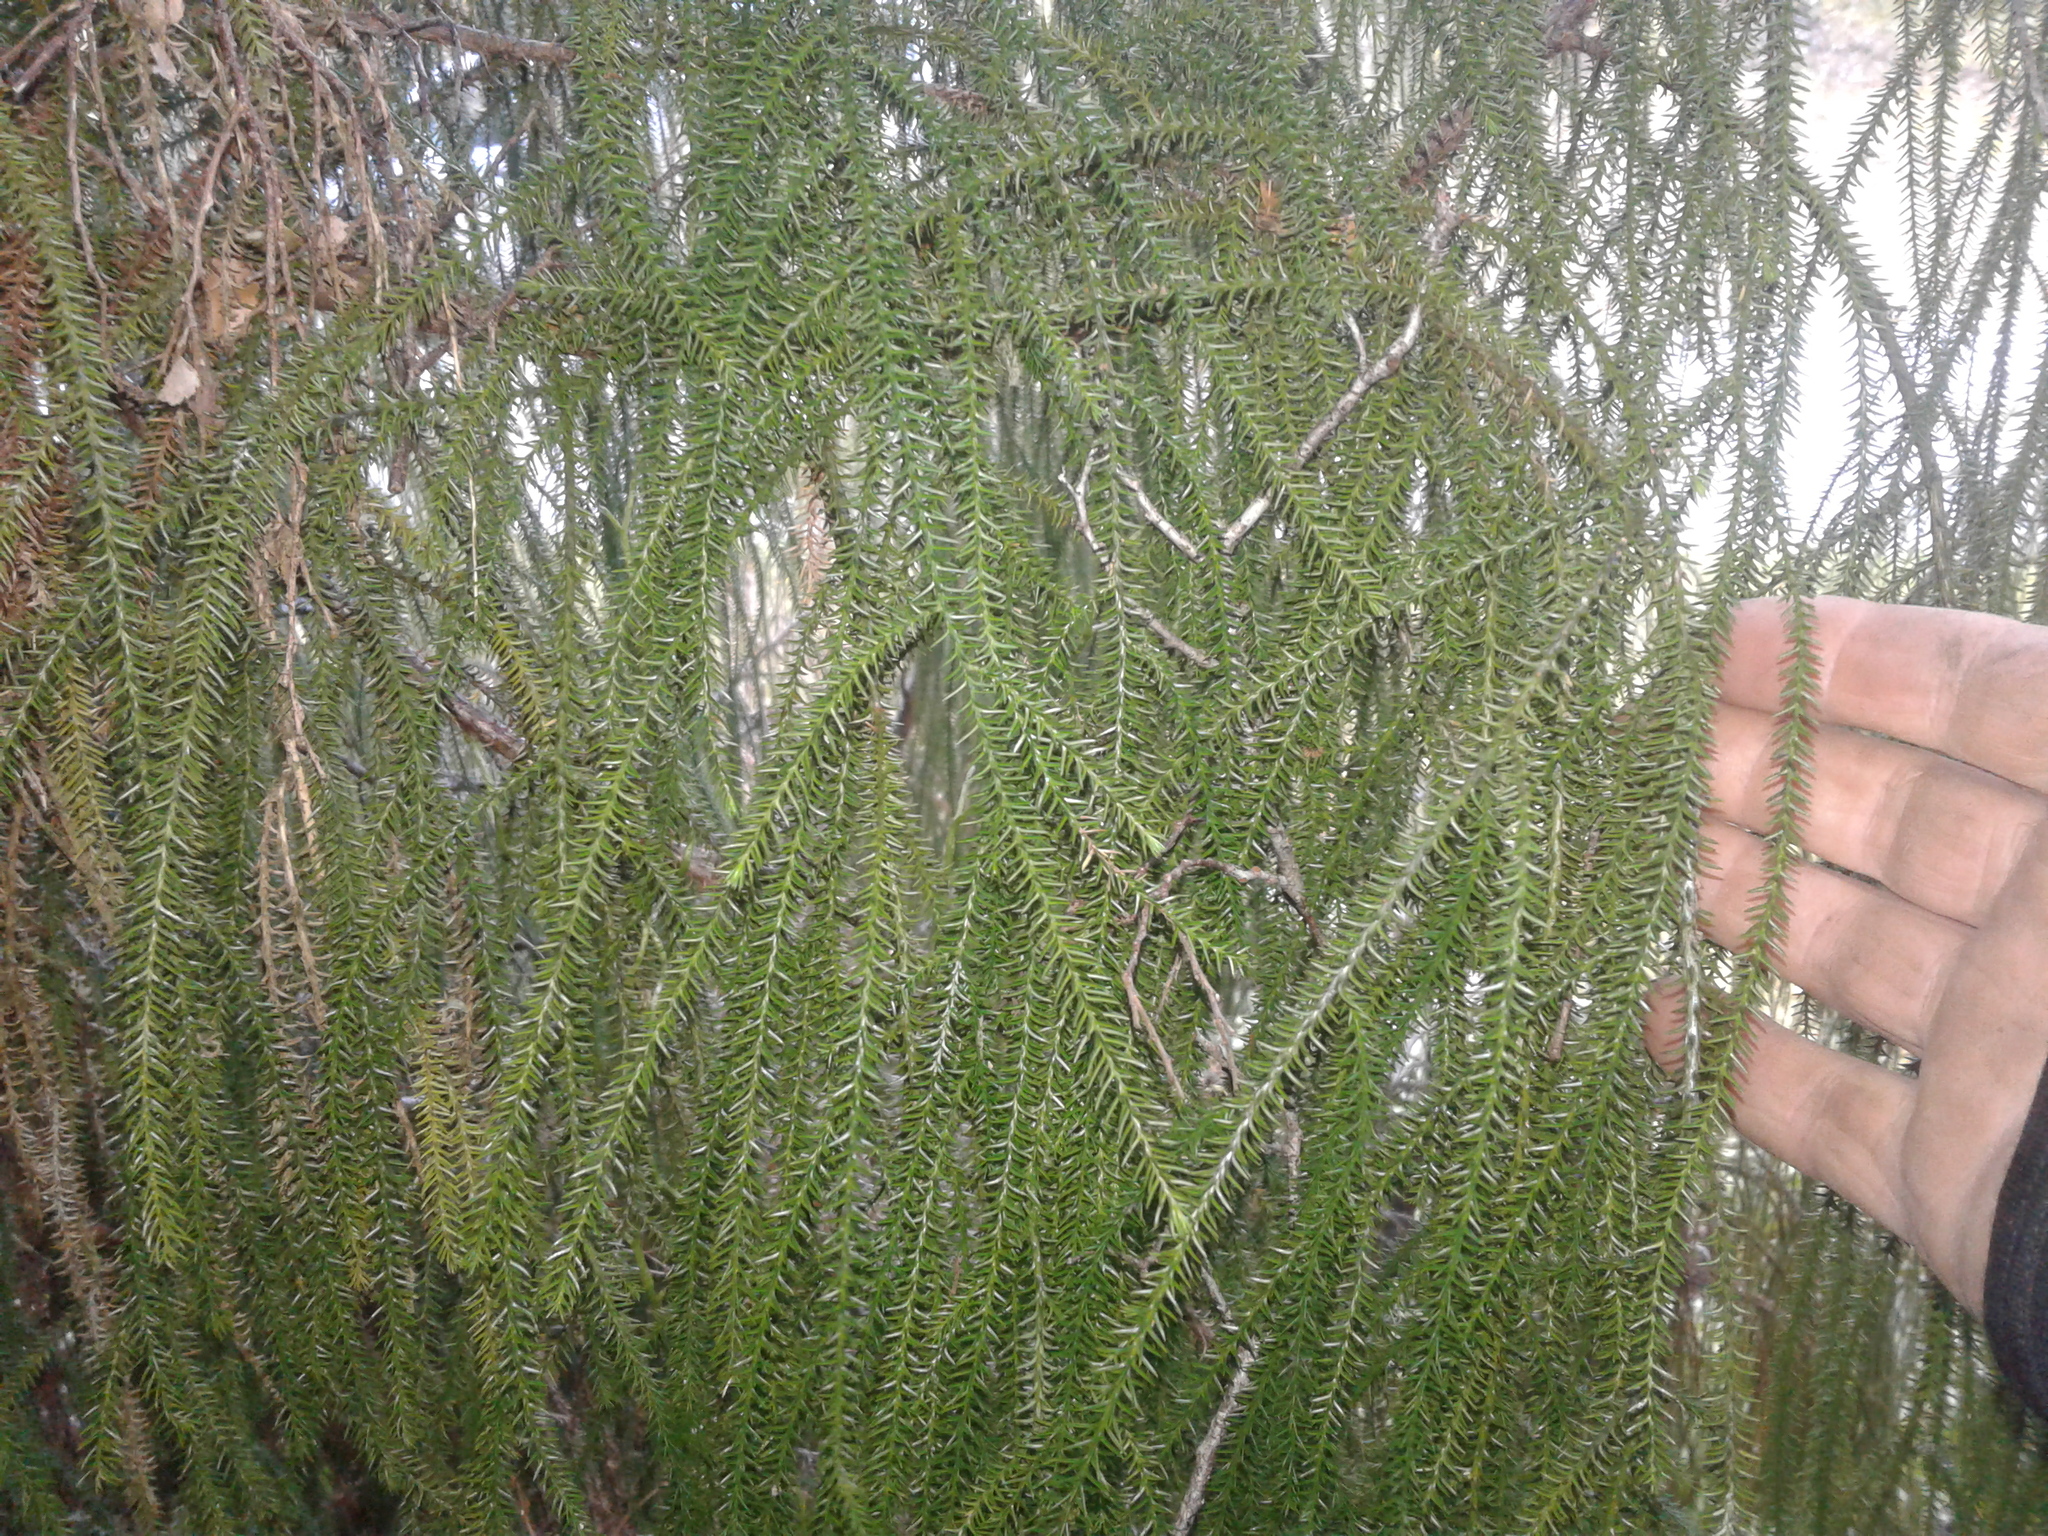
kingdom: Plantae
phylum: Tracheophyta
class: Pinopsida
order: Pinales
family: Podocarpaceae
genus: Dacrydium
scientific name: Dacrydium cupressinum
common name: Red pine
